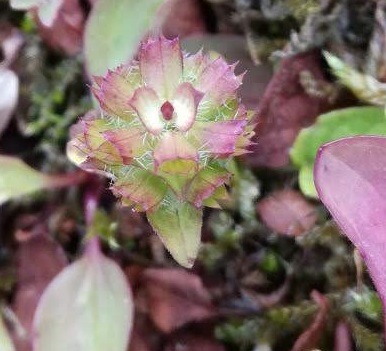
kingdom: Plantae
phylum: Tracheophyta
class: Magnoliopsida
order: Lamiales
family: Lamiaceae
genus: Prunella
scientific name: Prunella vulgaris
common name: Heal-all
